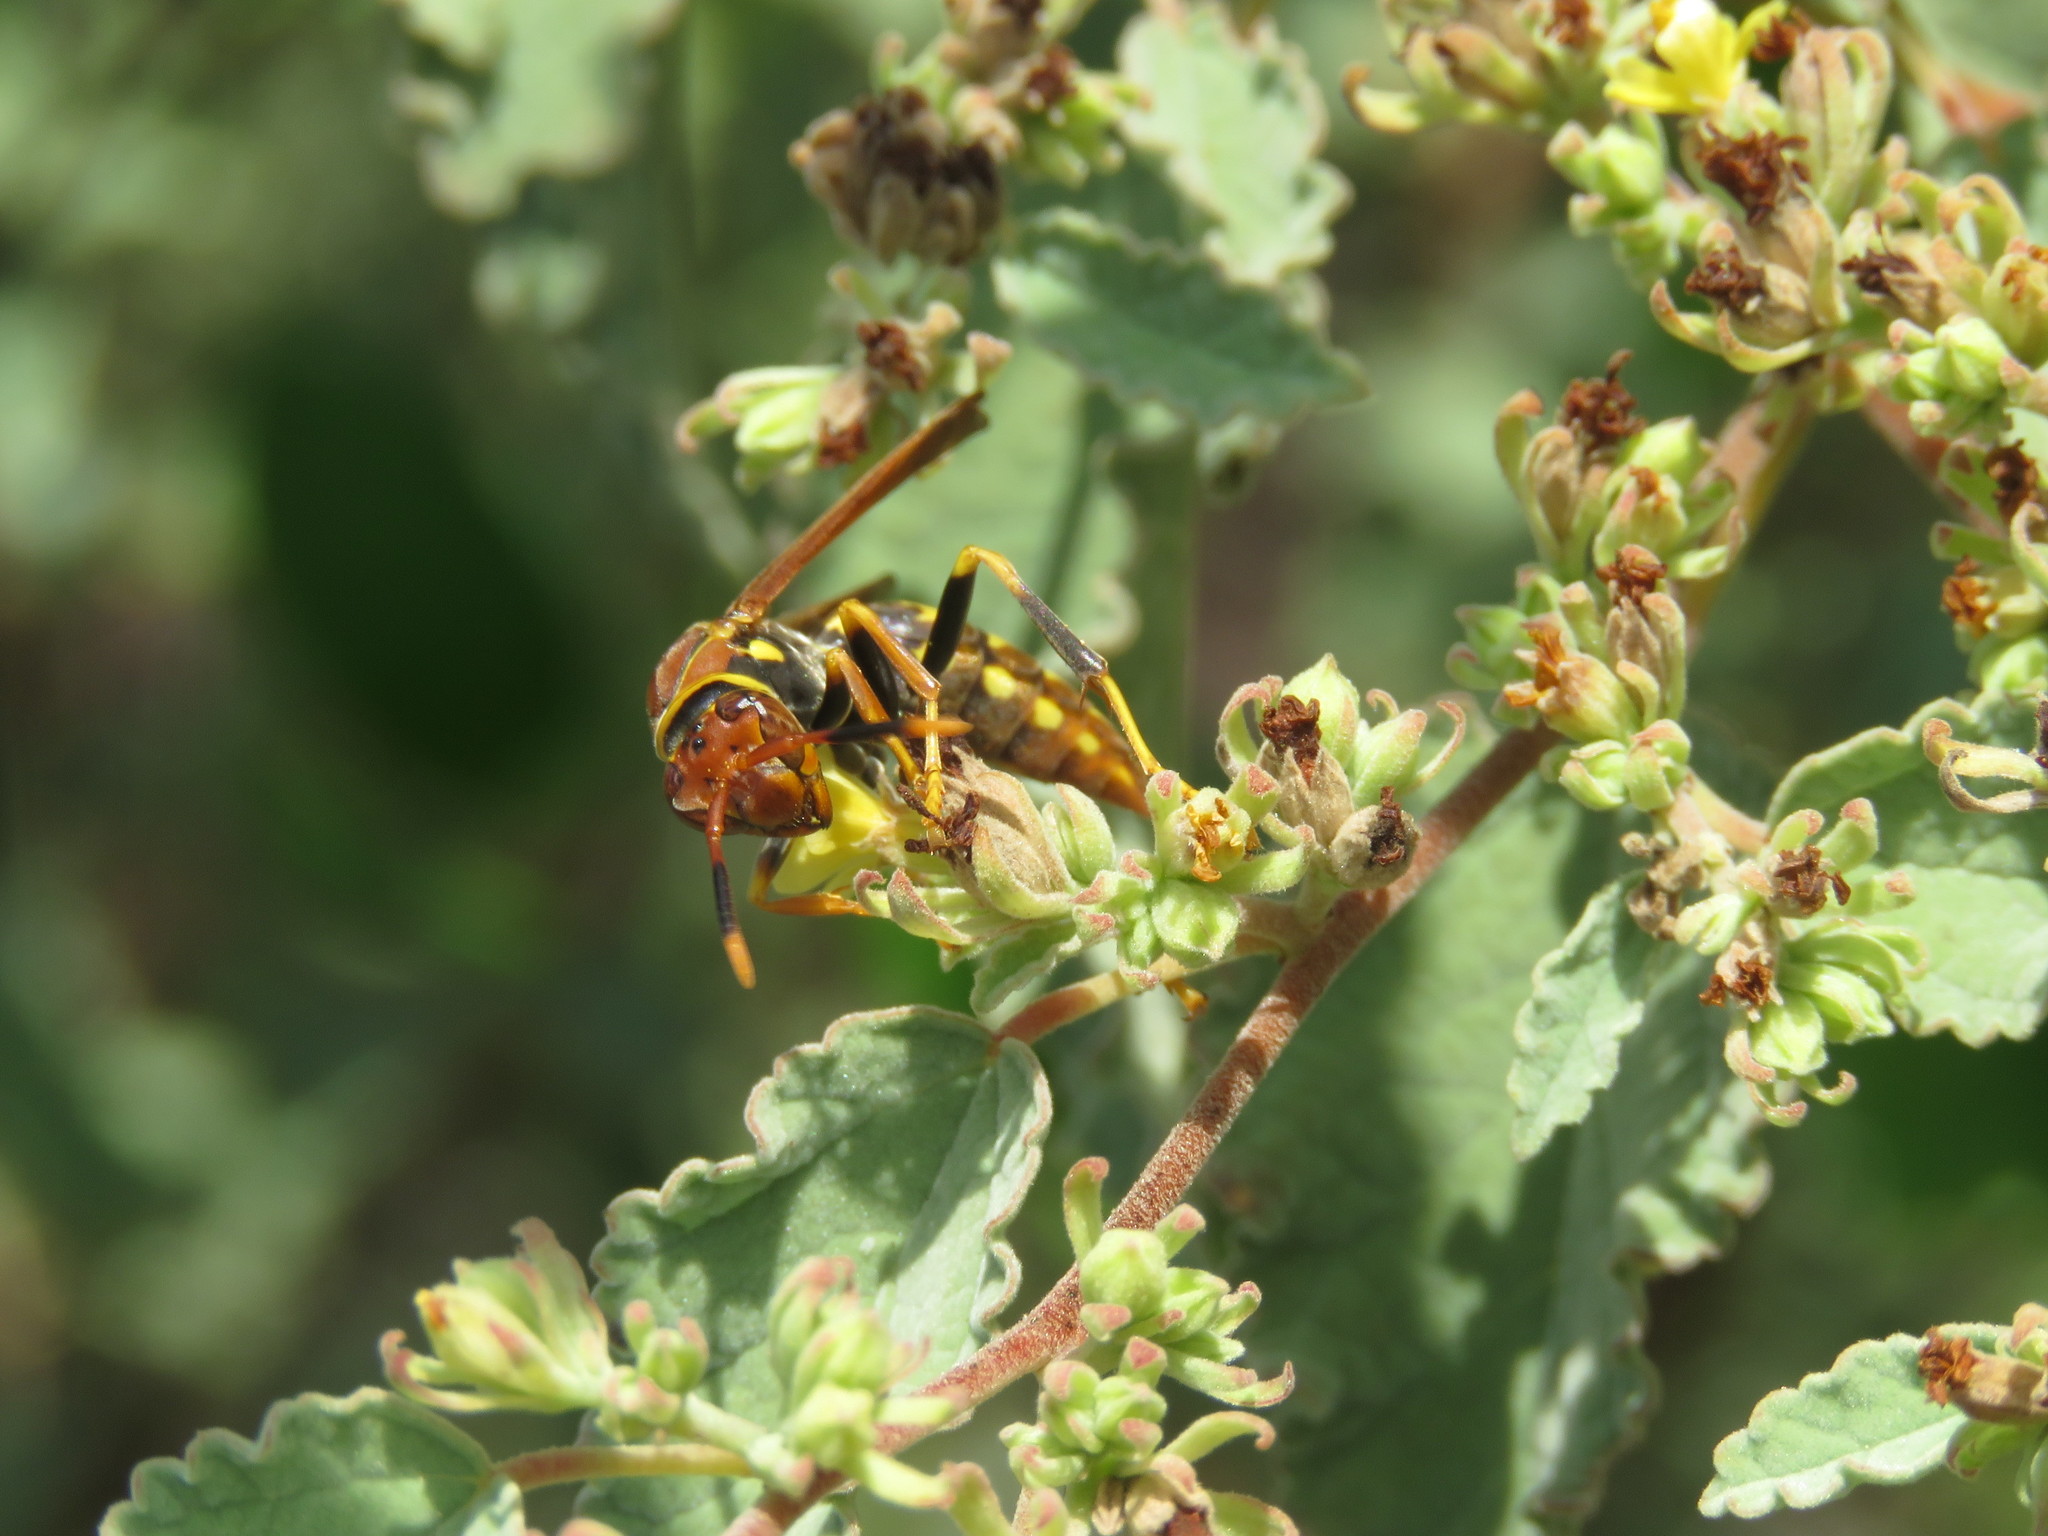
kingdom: Animalia
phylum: Arthropoda
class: Insecta
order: Hymenoptera
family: Eumenidae
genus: Polistes
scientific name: Polistes versicolor
